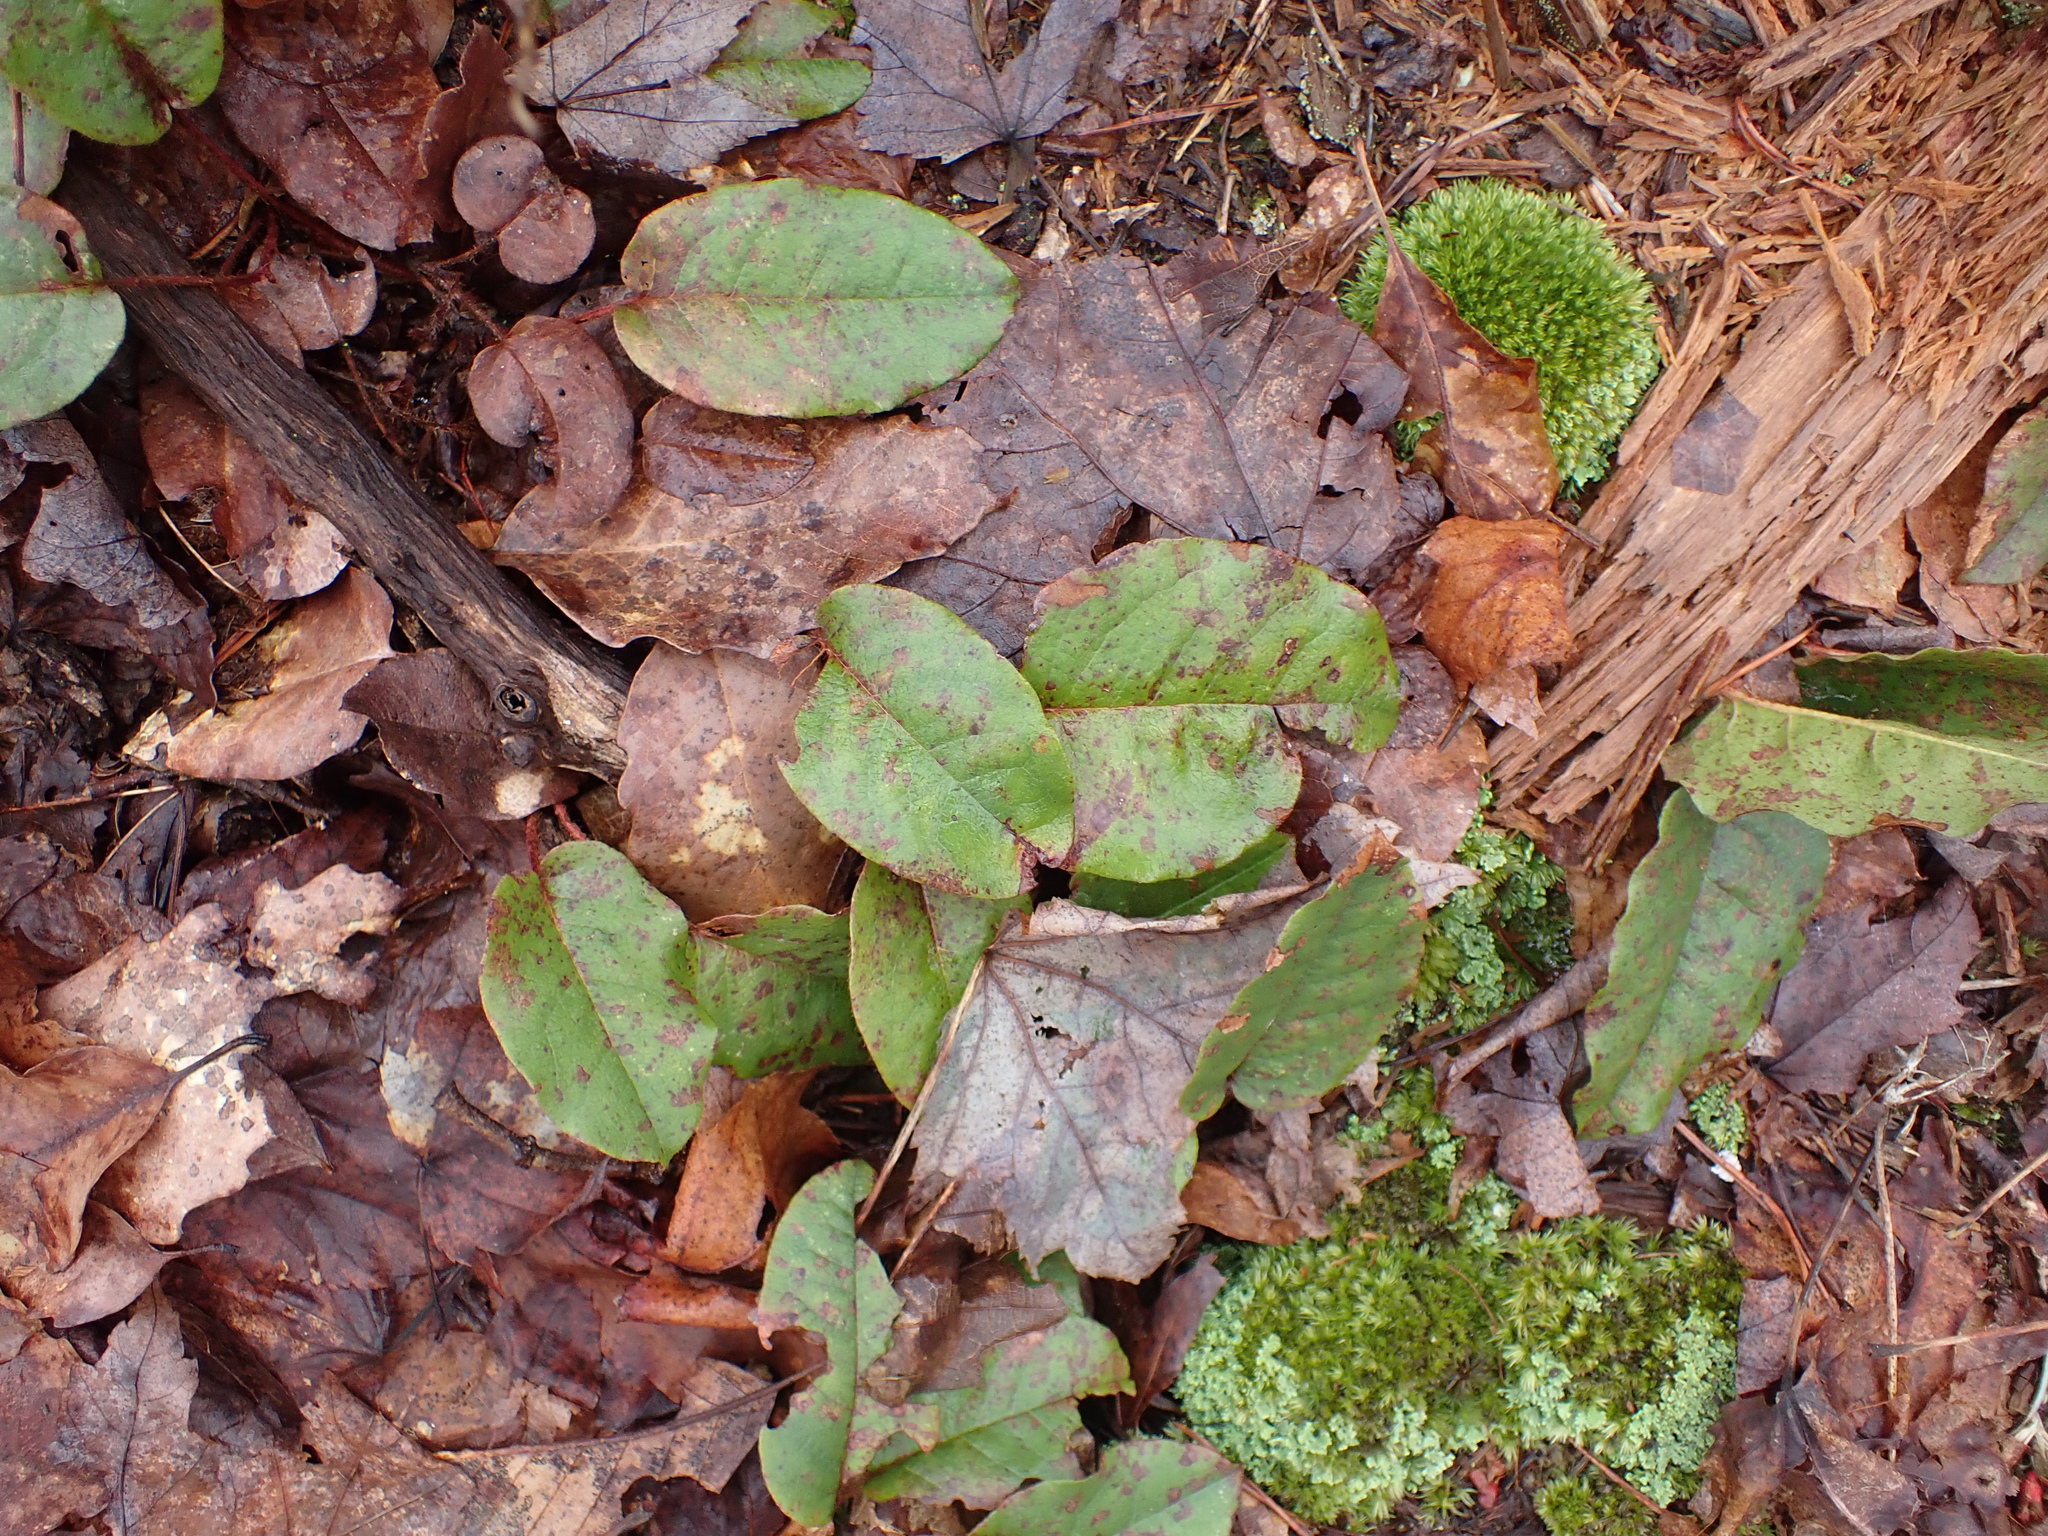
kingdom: Plantae
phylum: Tracheophyta
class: Magnoliopsida
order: Ericales
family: Ericaceae
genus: Epigaea
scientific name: Epigaea repens
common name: Gravelroot
